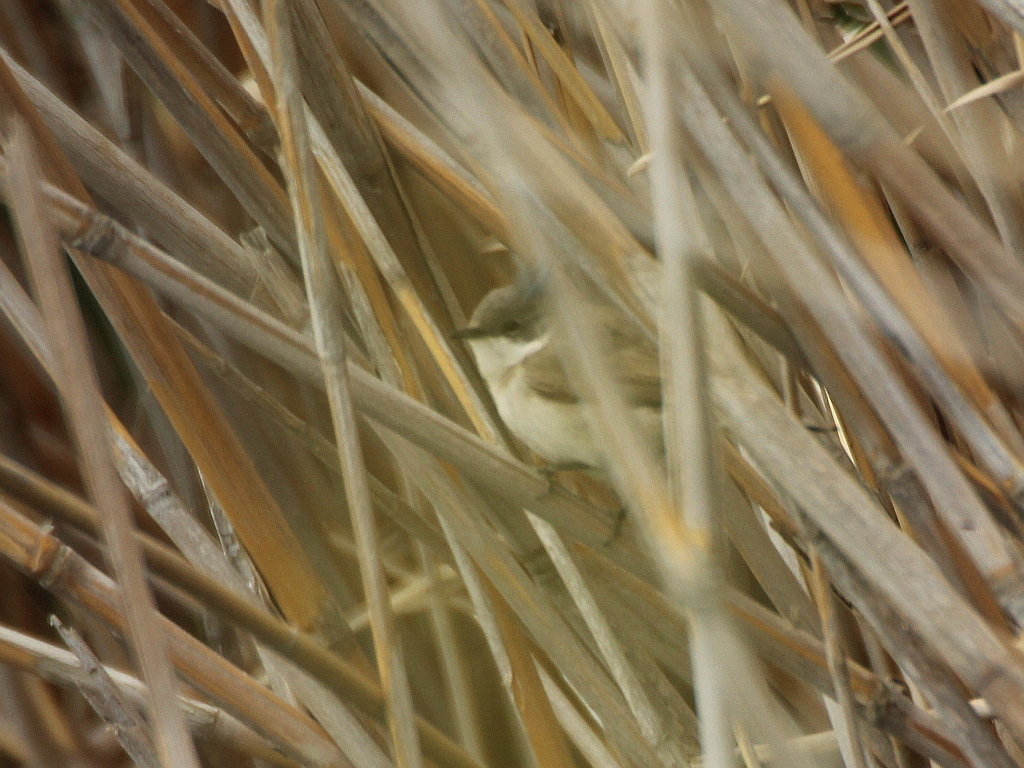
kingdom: Animalia
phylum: Chordata
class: Aves
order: Passeriformes
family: Sylviidae
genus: Sylvia
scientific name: Sylvia curruca
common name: Lesser whitethroat
